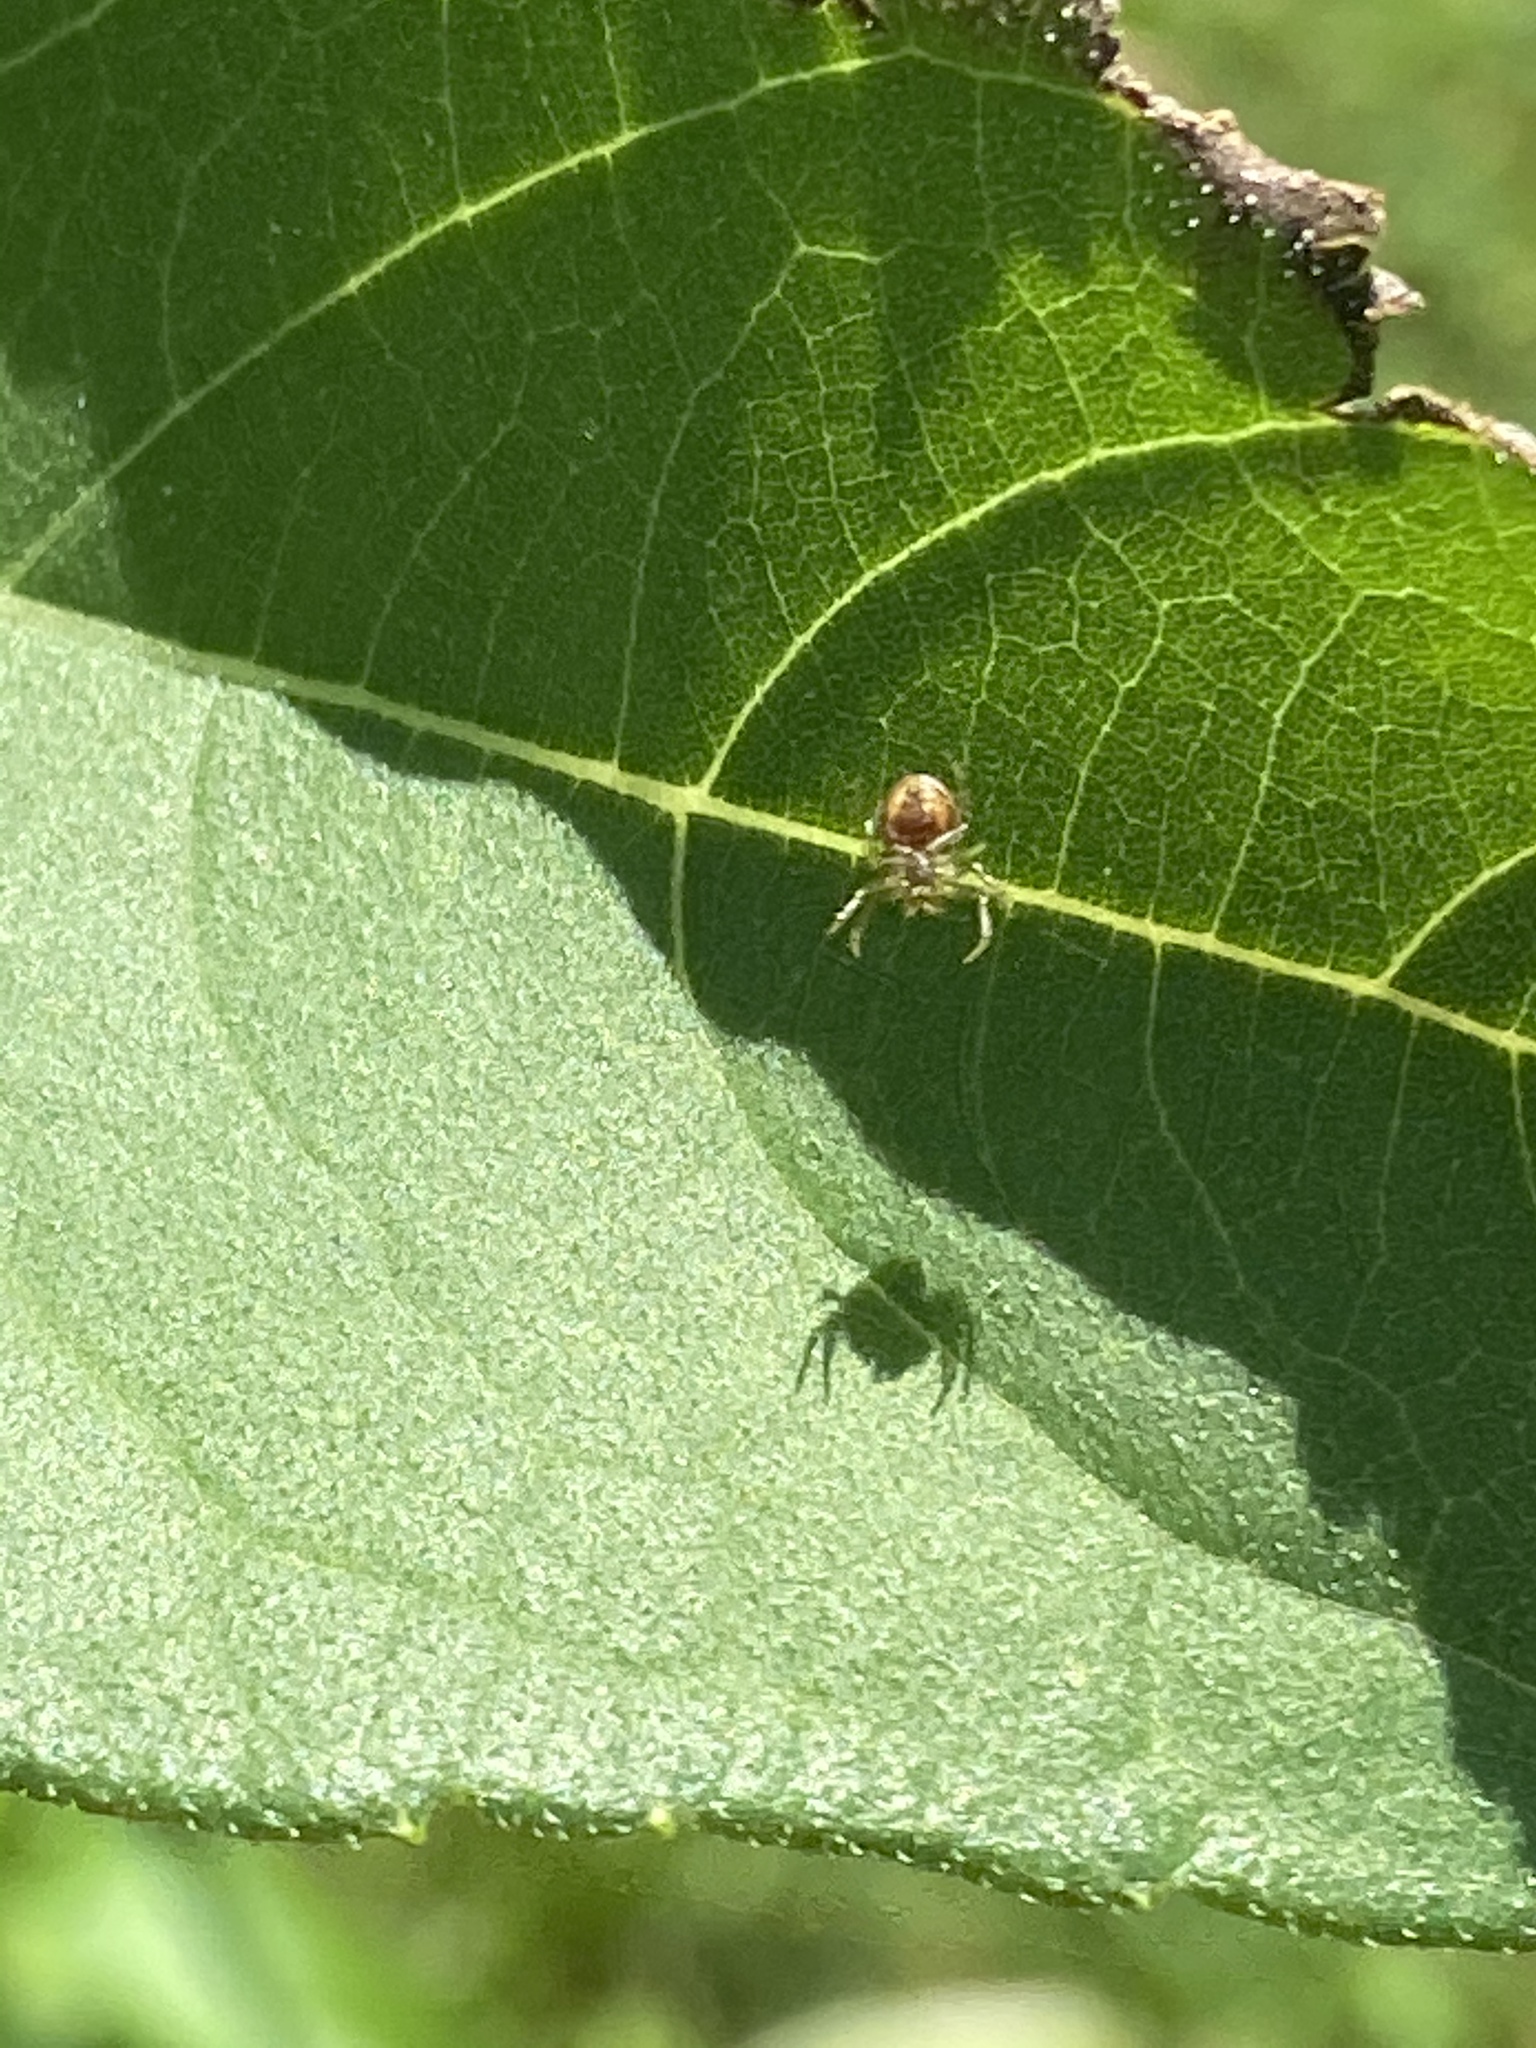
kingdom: Animalia
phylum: Arthropoda
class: Arachnida
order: Araneae
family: Araneidae
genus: Araniella
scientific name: Araniella displicata
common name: Sixspotted orb weaver
